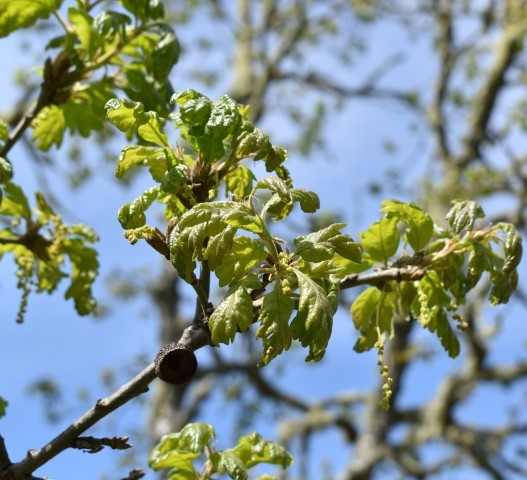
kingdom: Plantae
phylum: Tracheophyta
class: Magnoliopsida
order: Fagales
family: Fagaceae
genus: Quercus
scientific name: Quercus garryana
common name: Garry oak
